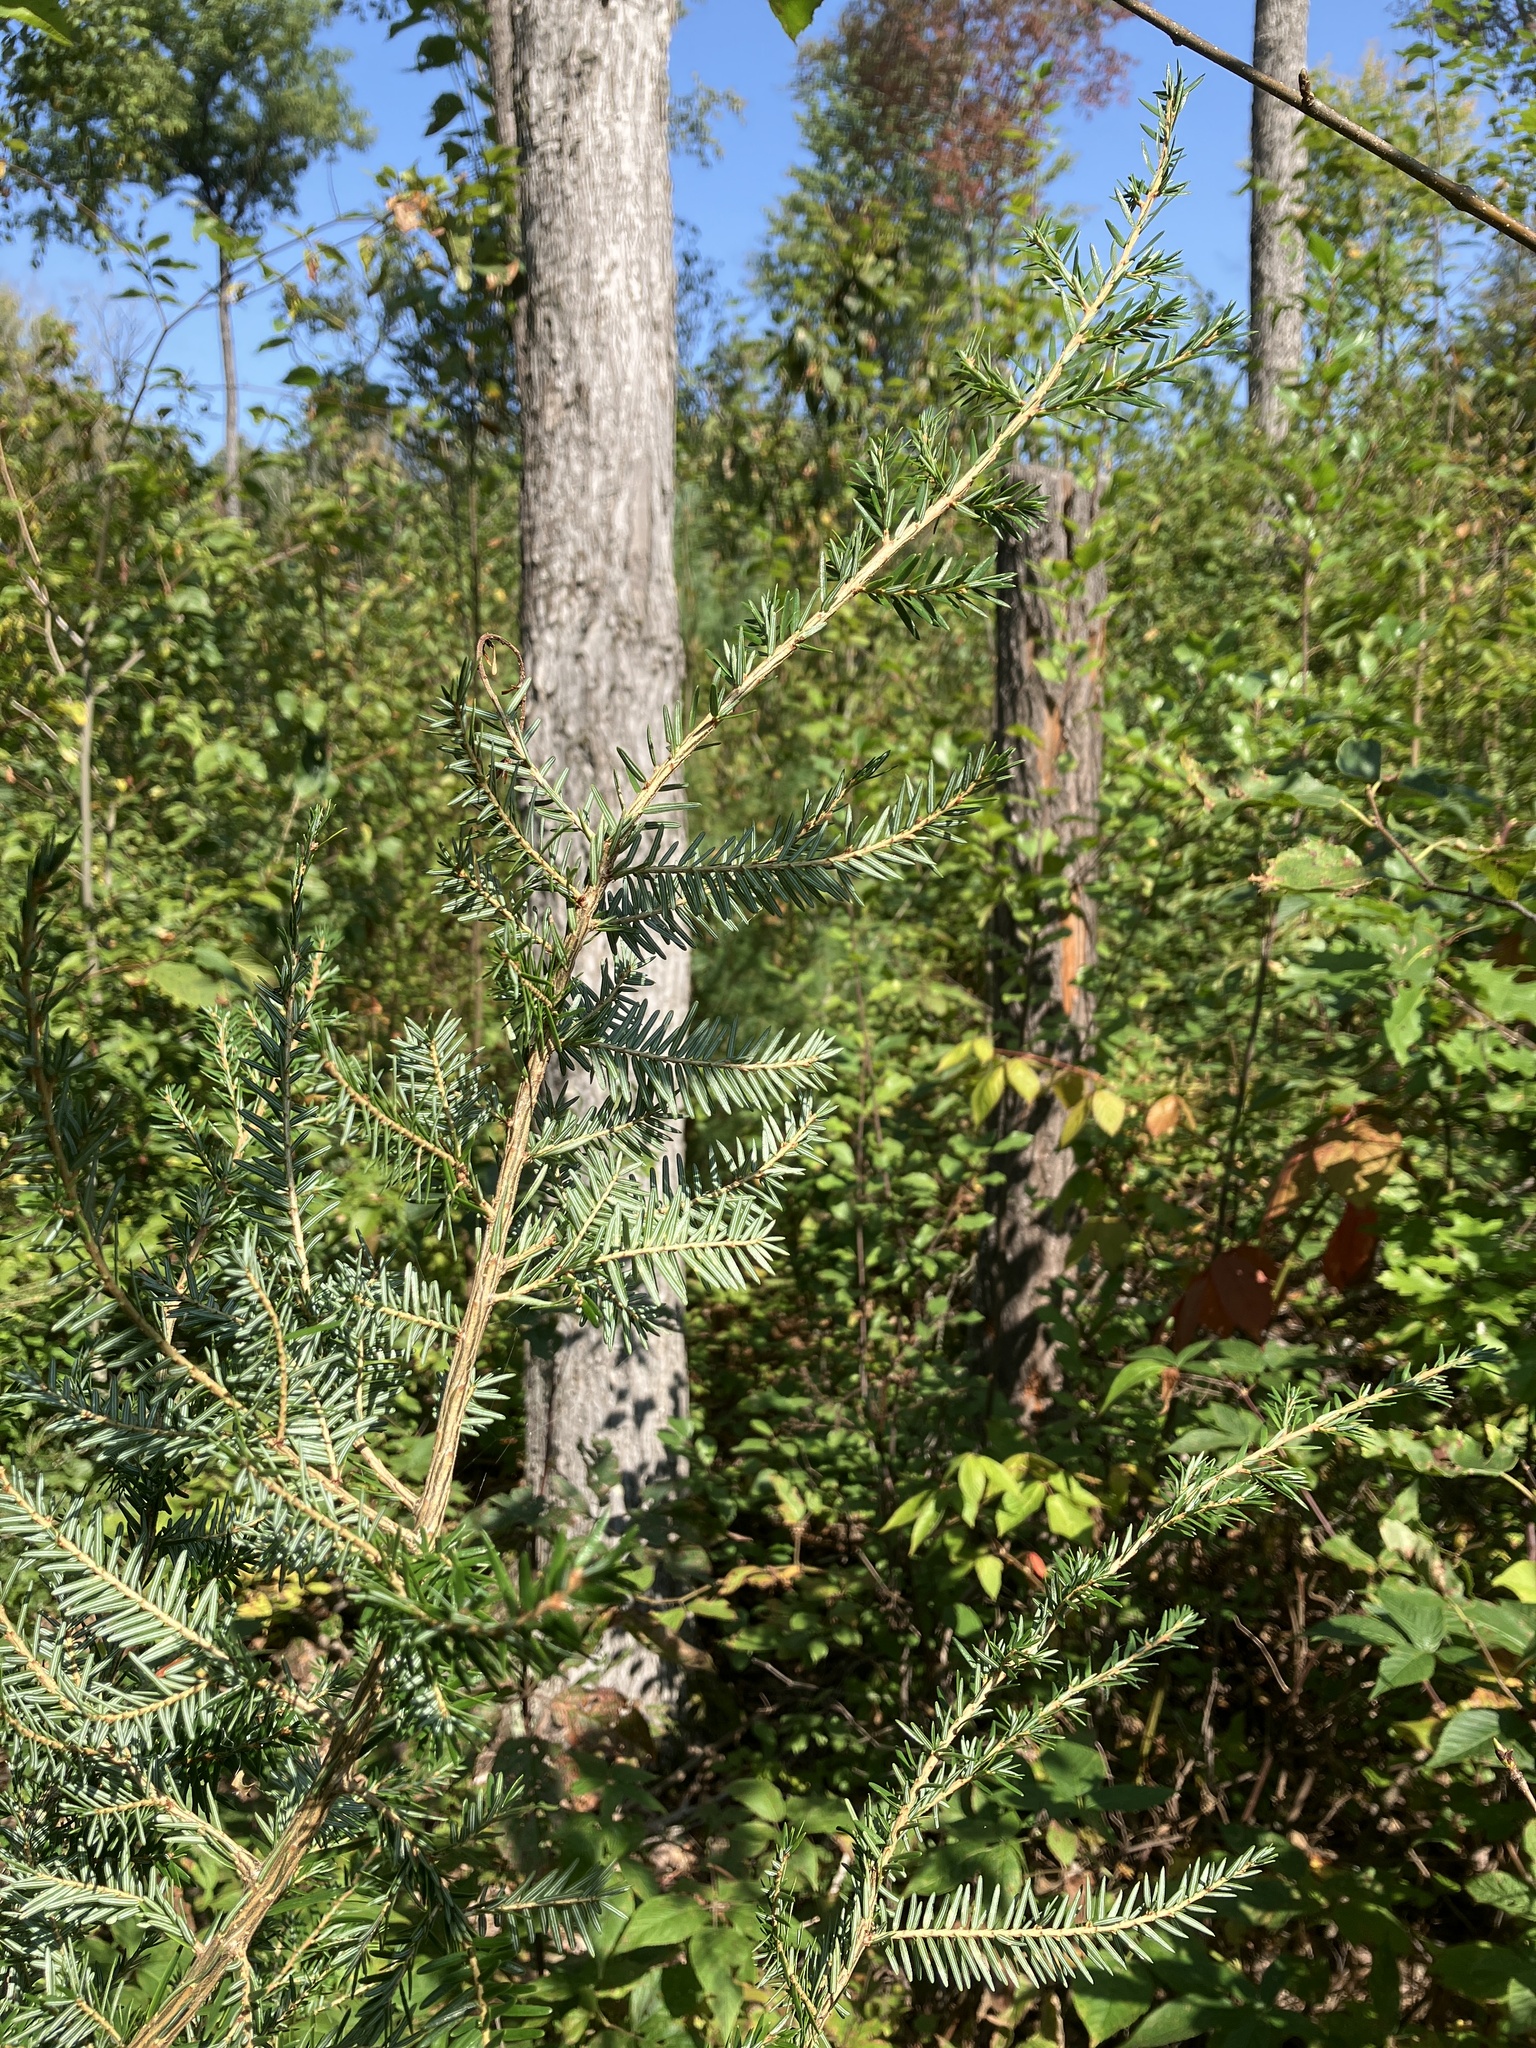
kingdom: Plantae
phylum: Tracheophyta
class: Pinopsida
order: Pinales
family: Pinaceae
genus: Tsuga
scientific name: Tsuga canadensis
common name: Eastern hemlock
